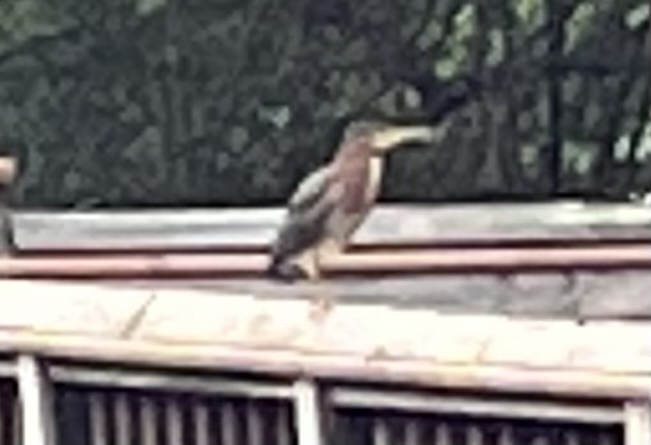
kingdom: Animalia
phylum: Chordata
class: Aves
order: Pelecaniformes
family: Ardeidae
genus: Butorides
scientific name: Butorides virescens
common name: Green heron
